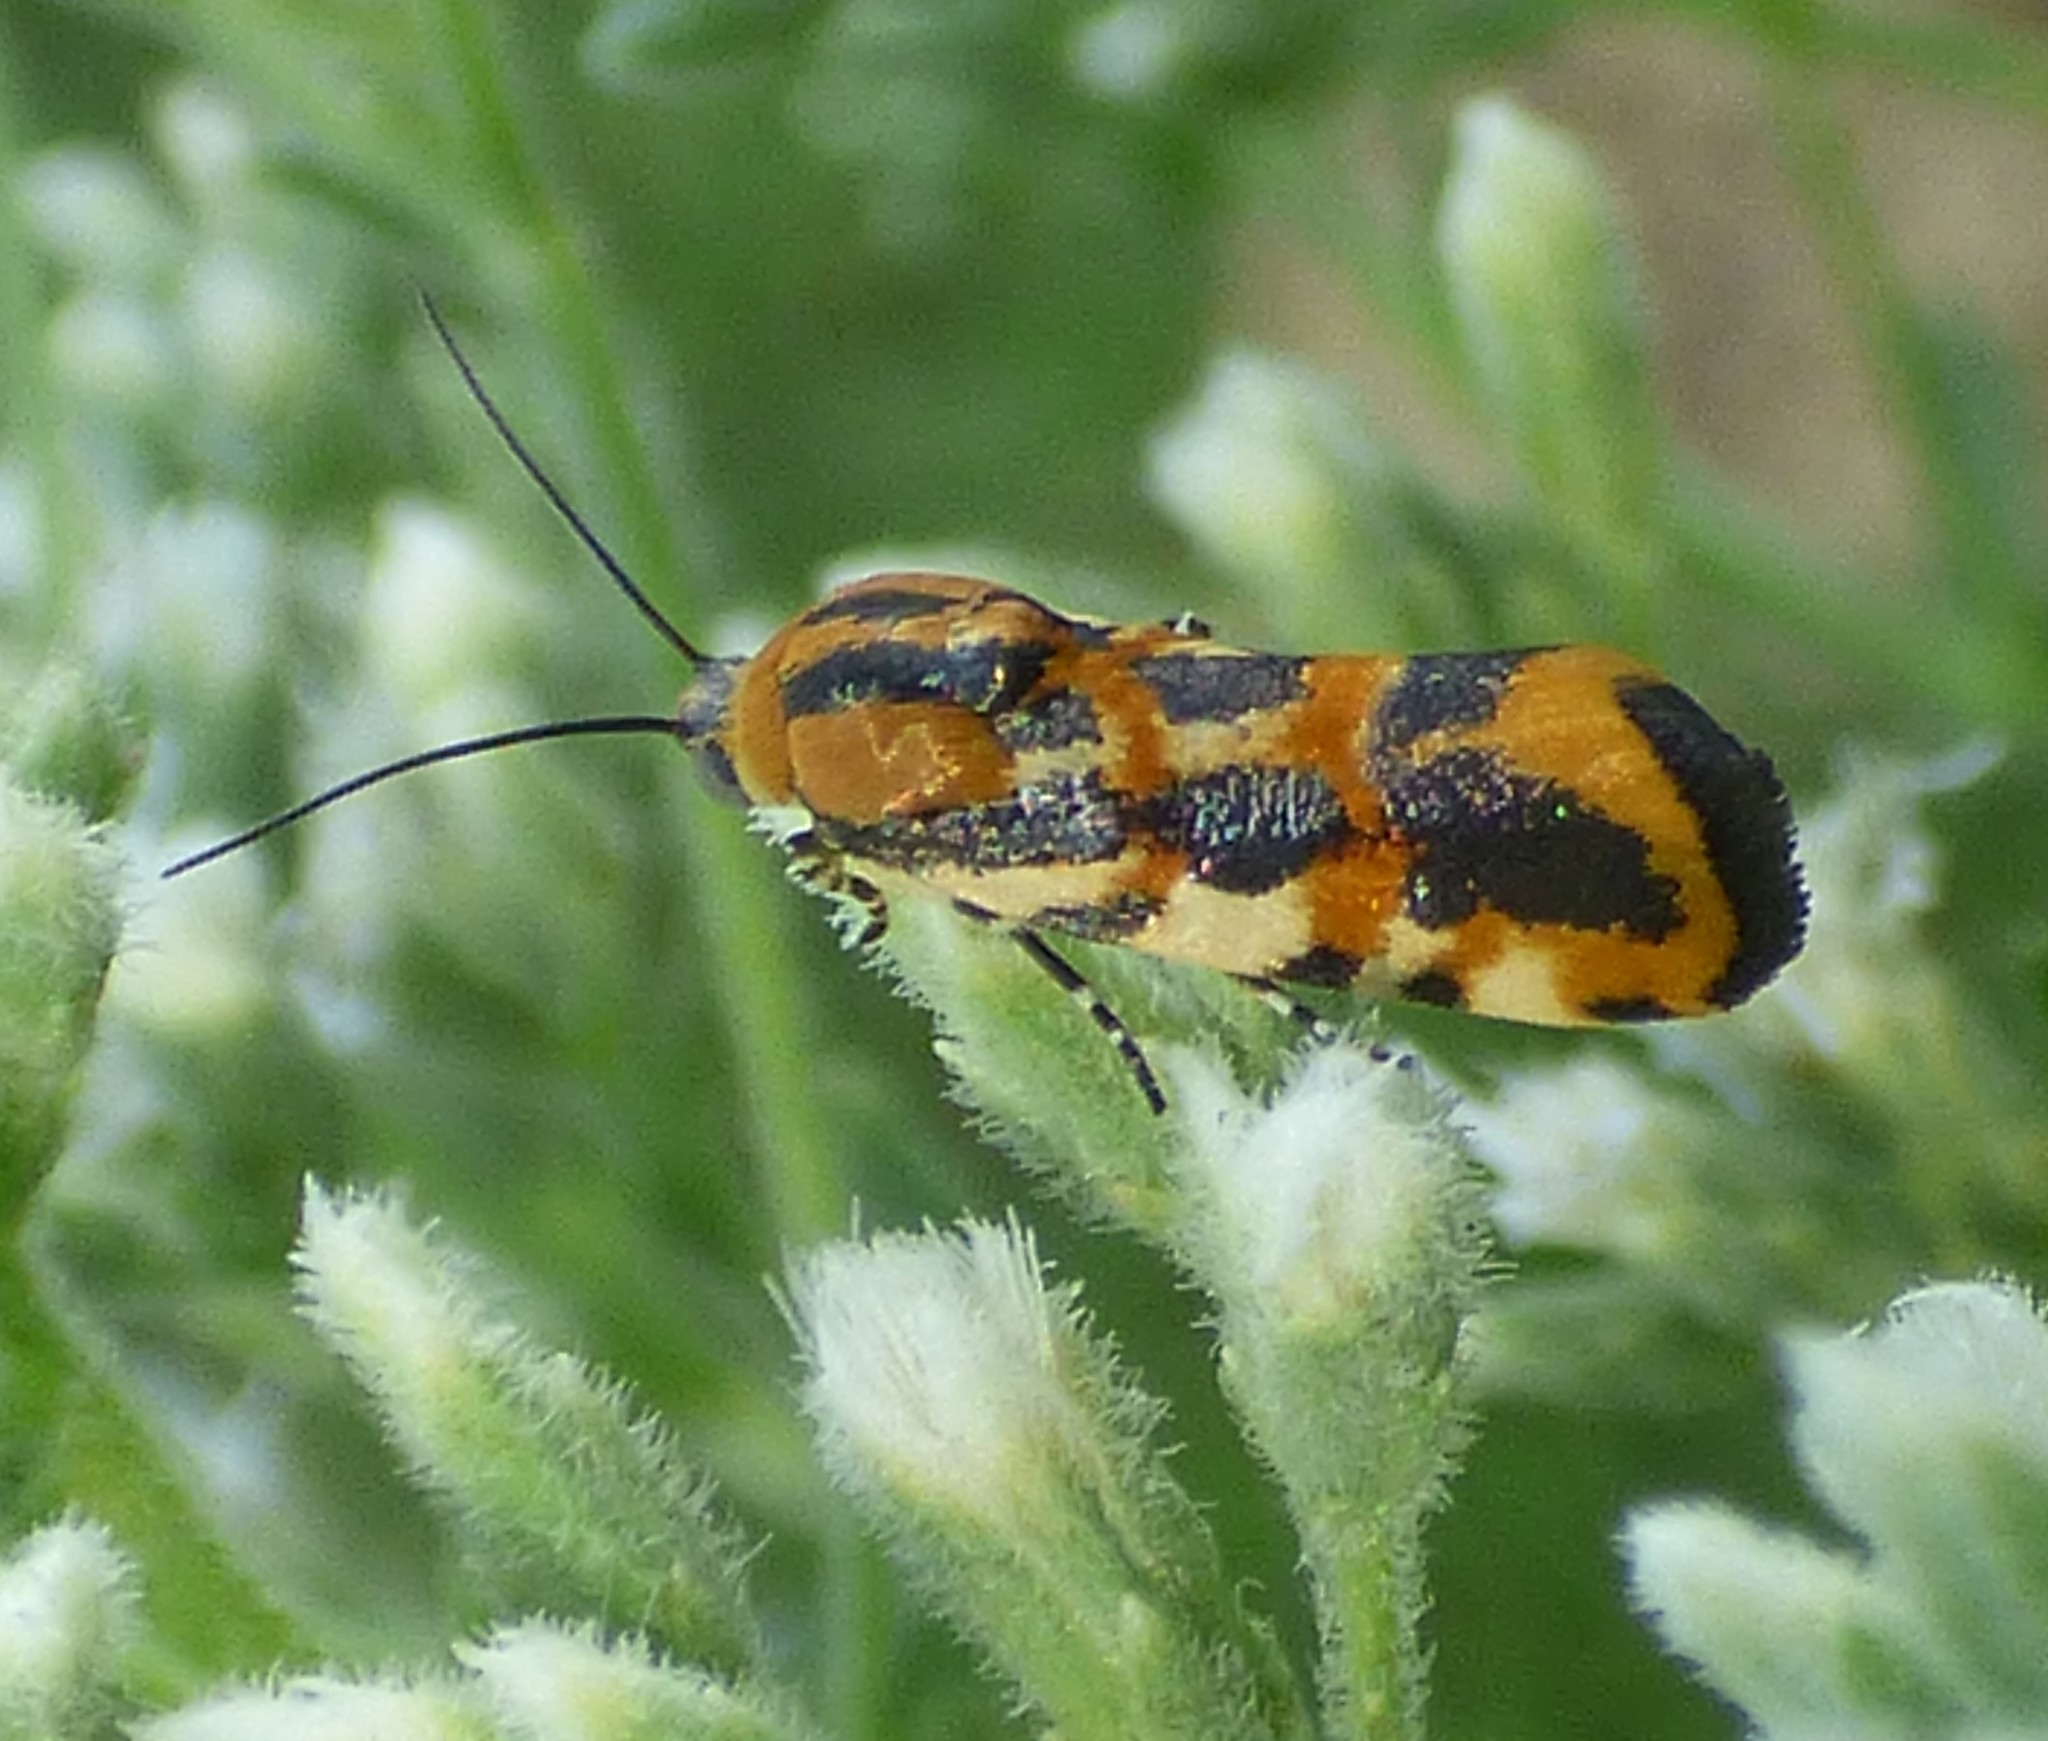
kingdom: Animalia
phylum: Arthropoda
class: Insecta
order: Lepidoptera
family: Noctuidae
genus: Acontia
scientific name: Acontia leo
